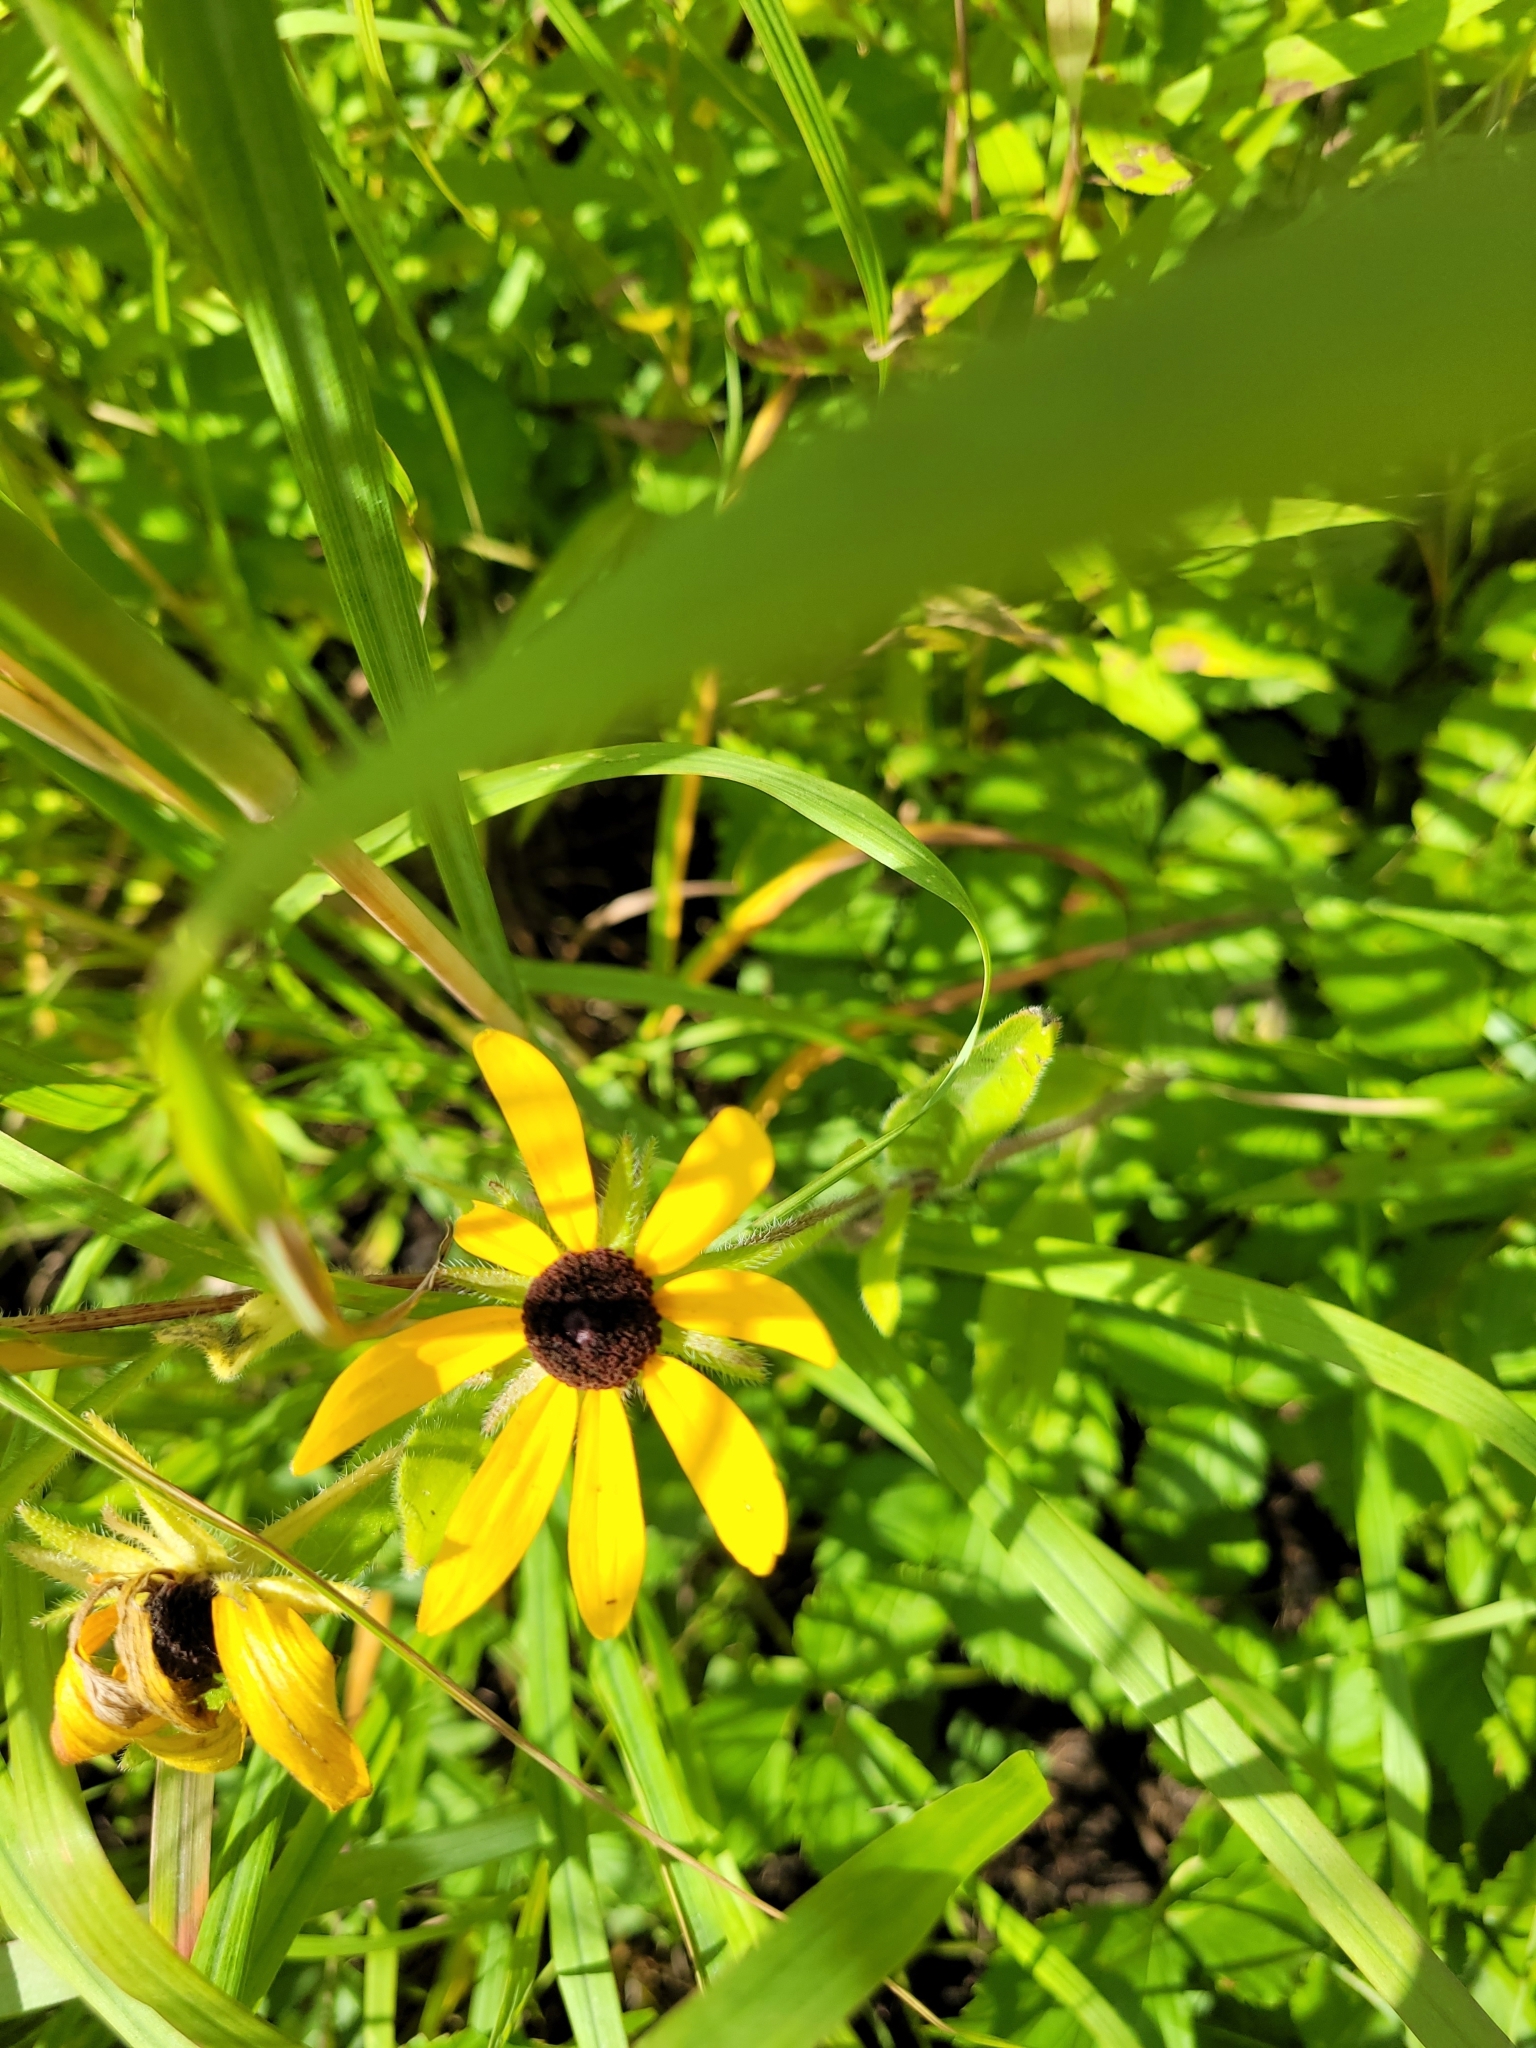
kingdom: Plantae
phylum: Tracheophyta
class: Magnoliopsida
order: Asterales
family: Asteraceae
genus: Rudbeckia
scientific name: Rudbeckia hirta
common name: Black-eyed-susan
